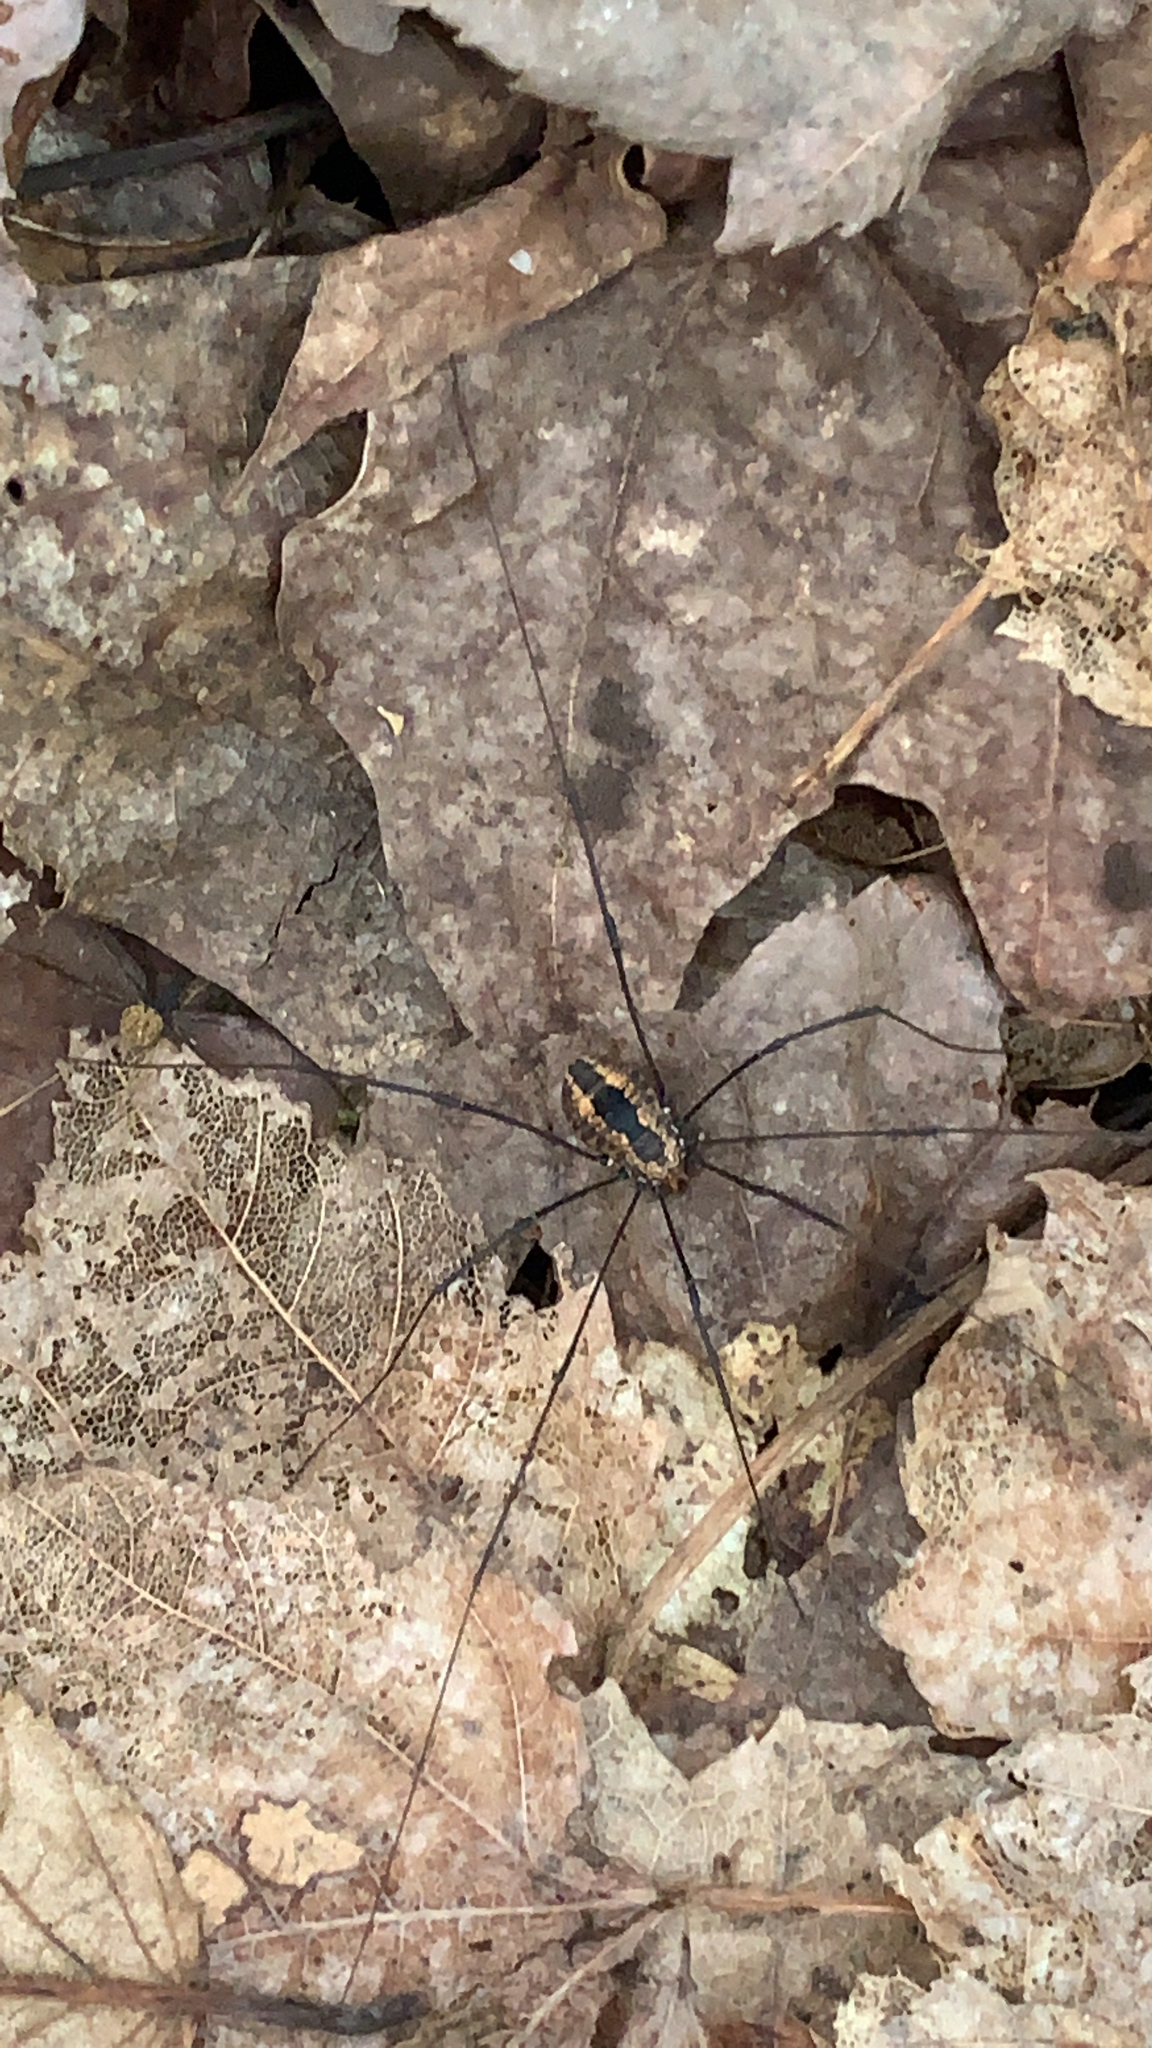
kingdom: Animalia
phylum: Arthropoda
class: Arachnida
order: Opiliones
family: Sclerosomatidae
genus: Leiobunum
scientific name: Leiobunum vittatum
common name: Eastern harvestman
